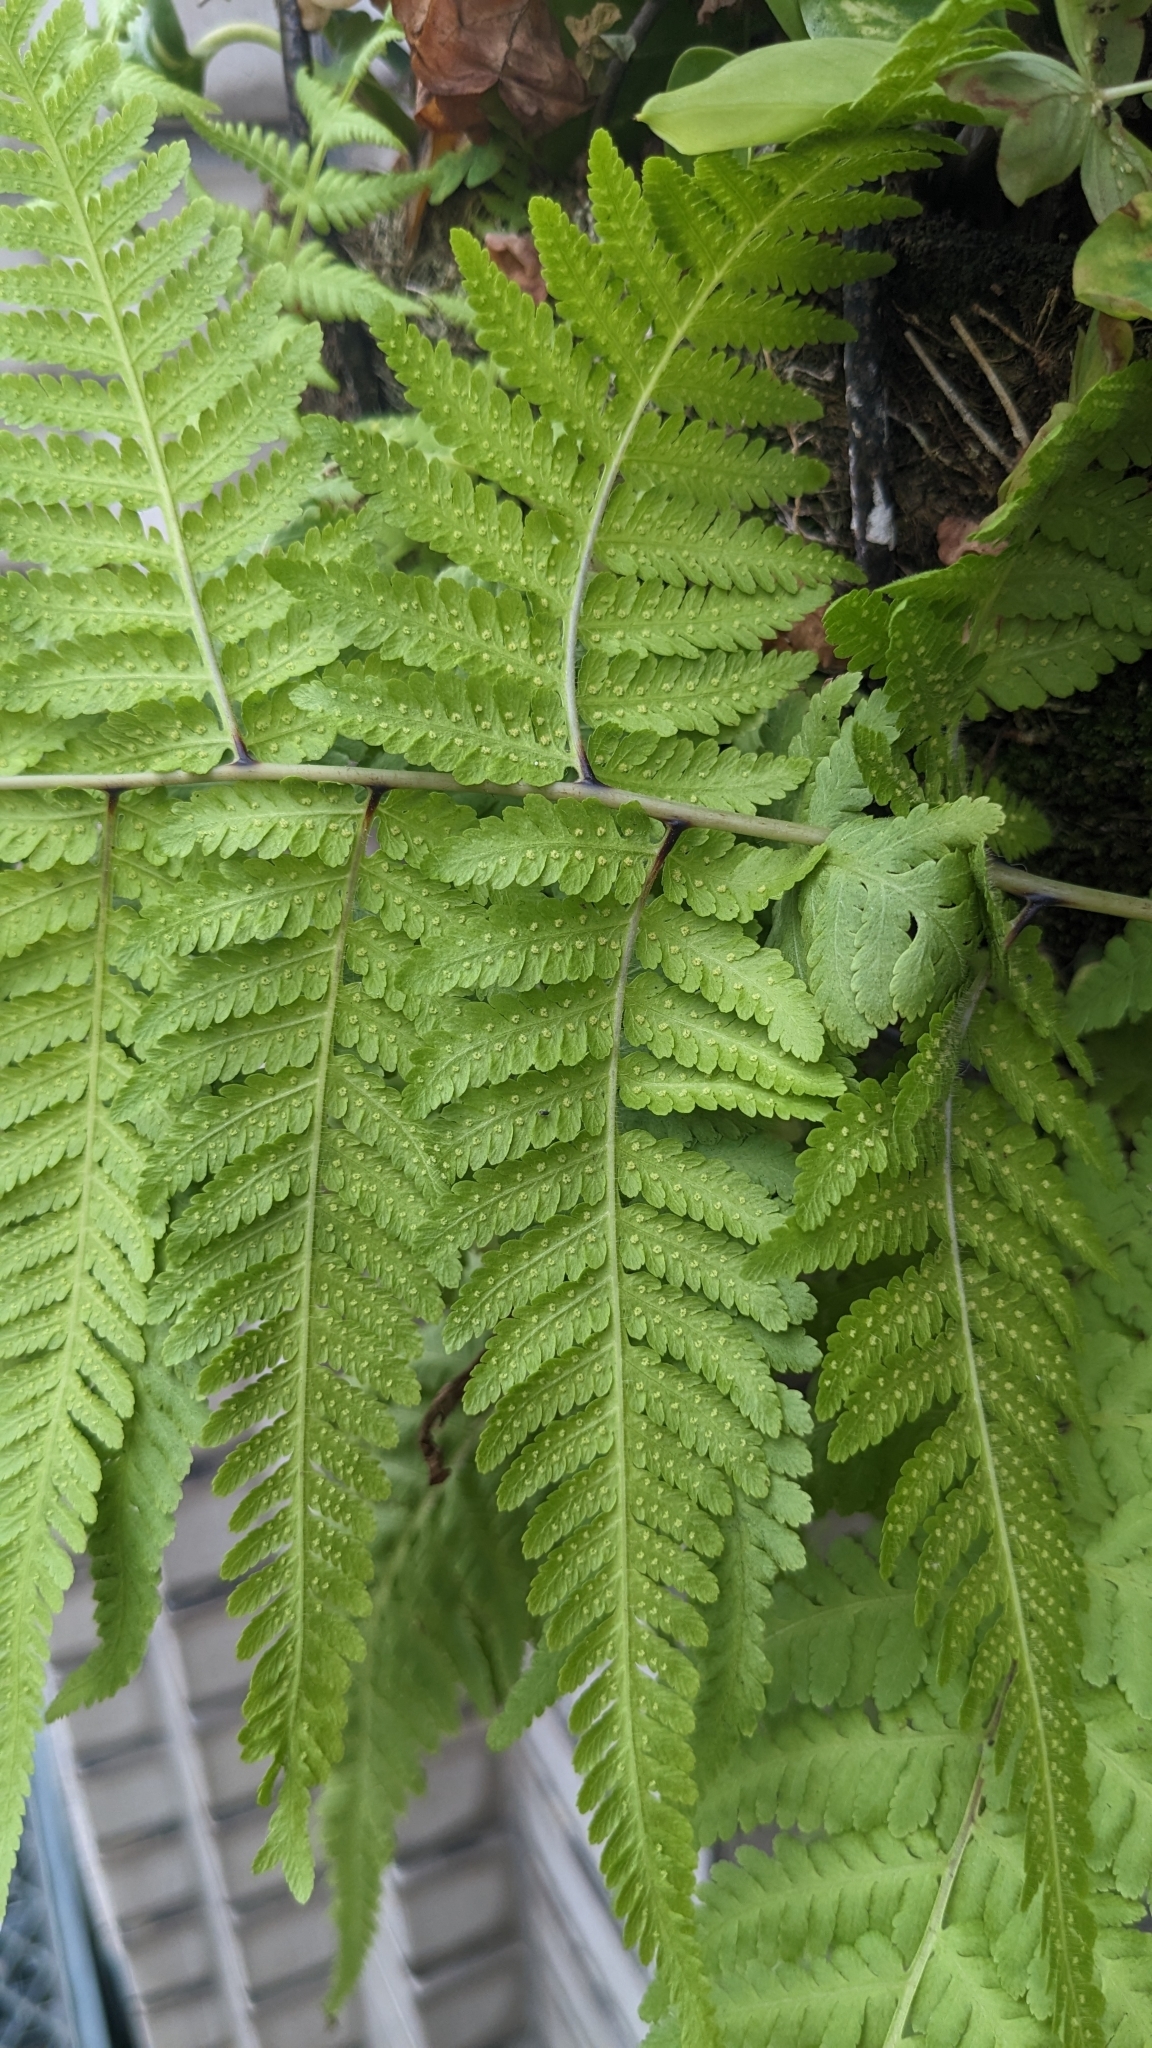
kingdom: Plantae
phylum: Tracheophyta
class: Polypodiopsida
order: Polypodiales
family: Thelypteridaceae
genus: Macrothelypteris
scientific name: Macrothelypteris torresiana
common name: Swordfern
